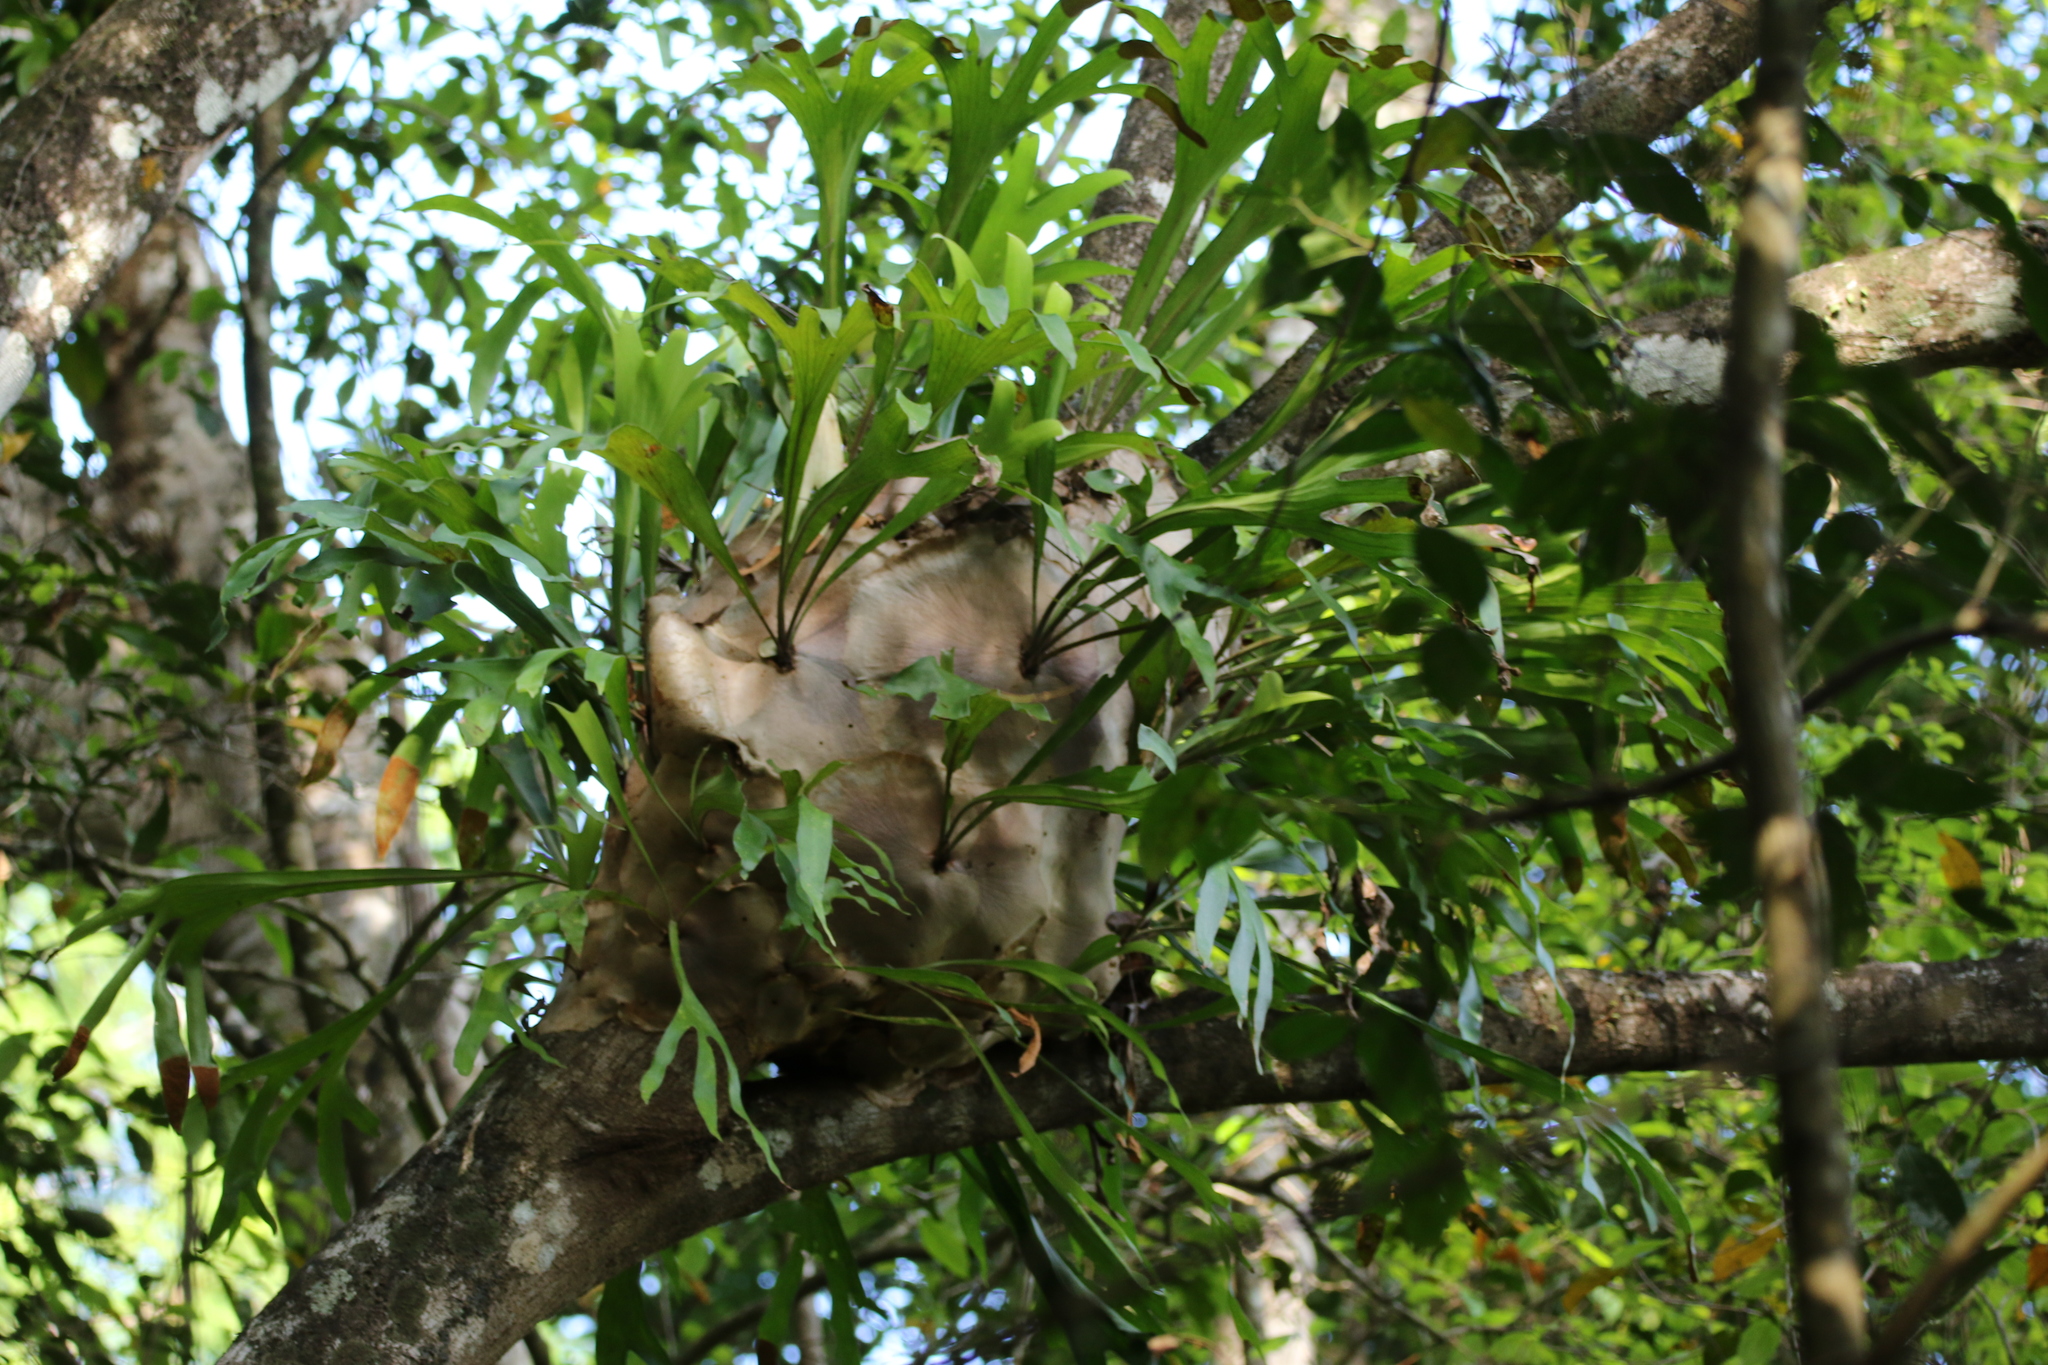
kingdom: Plantae
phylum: Tracheophyta
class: Polypodiopsida
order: Polypodiales
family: Polypodiaceae
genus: Platycerium
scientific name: Platycerium hillii
